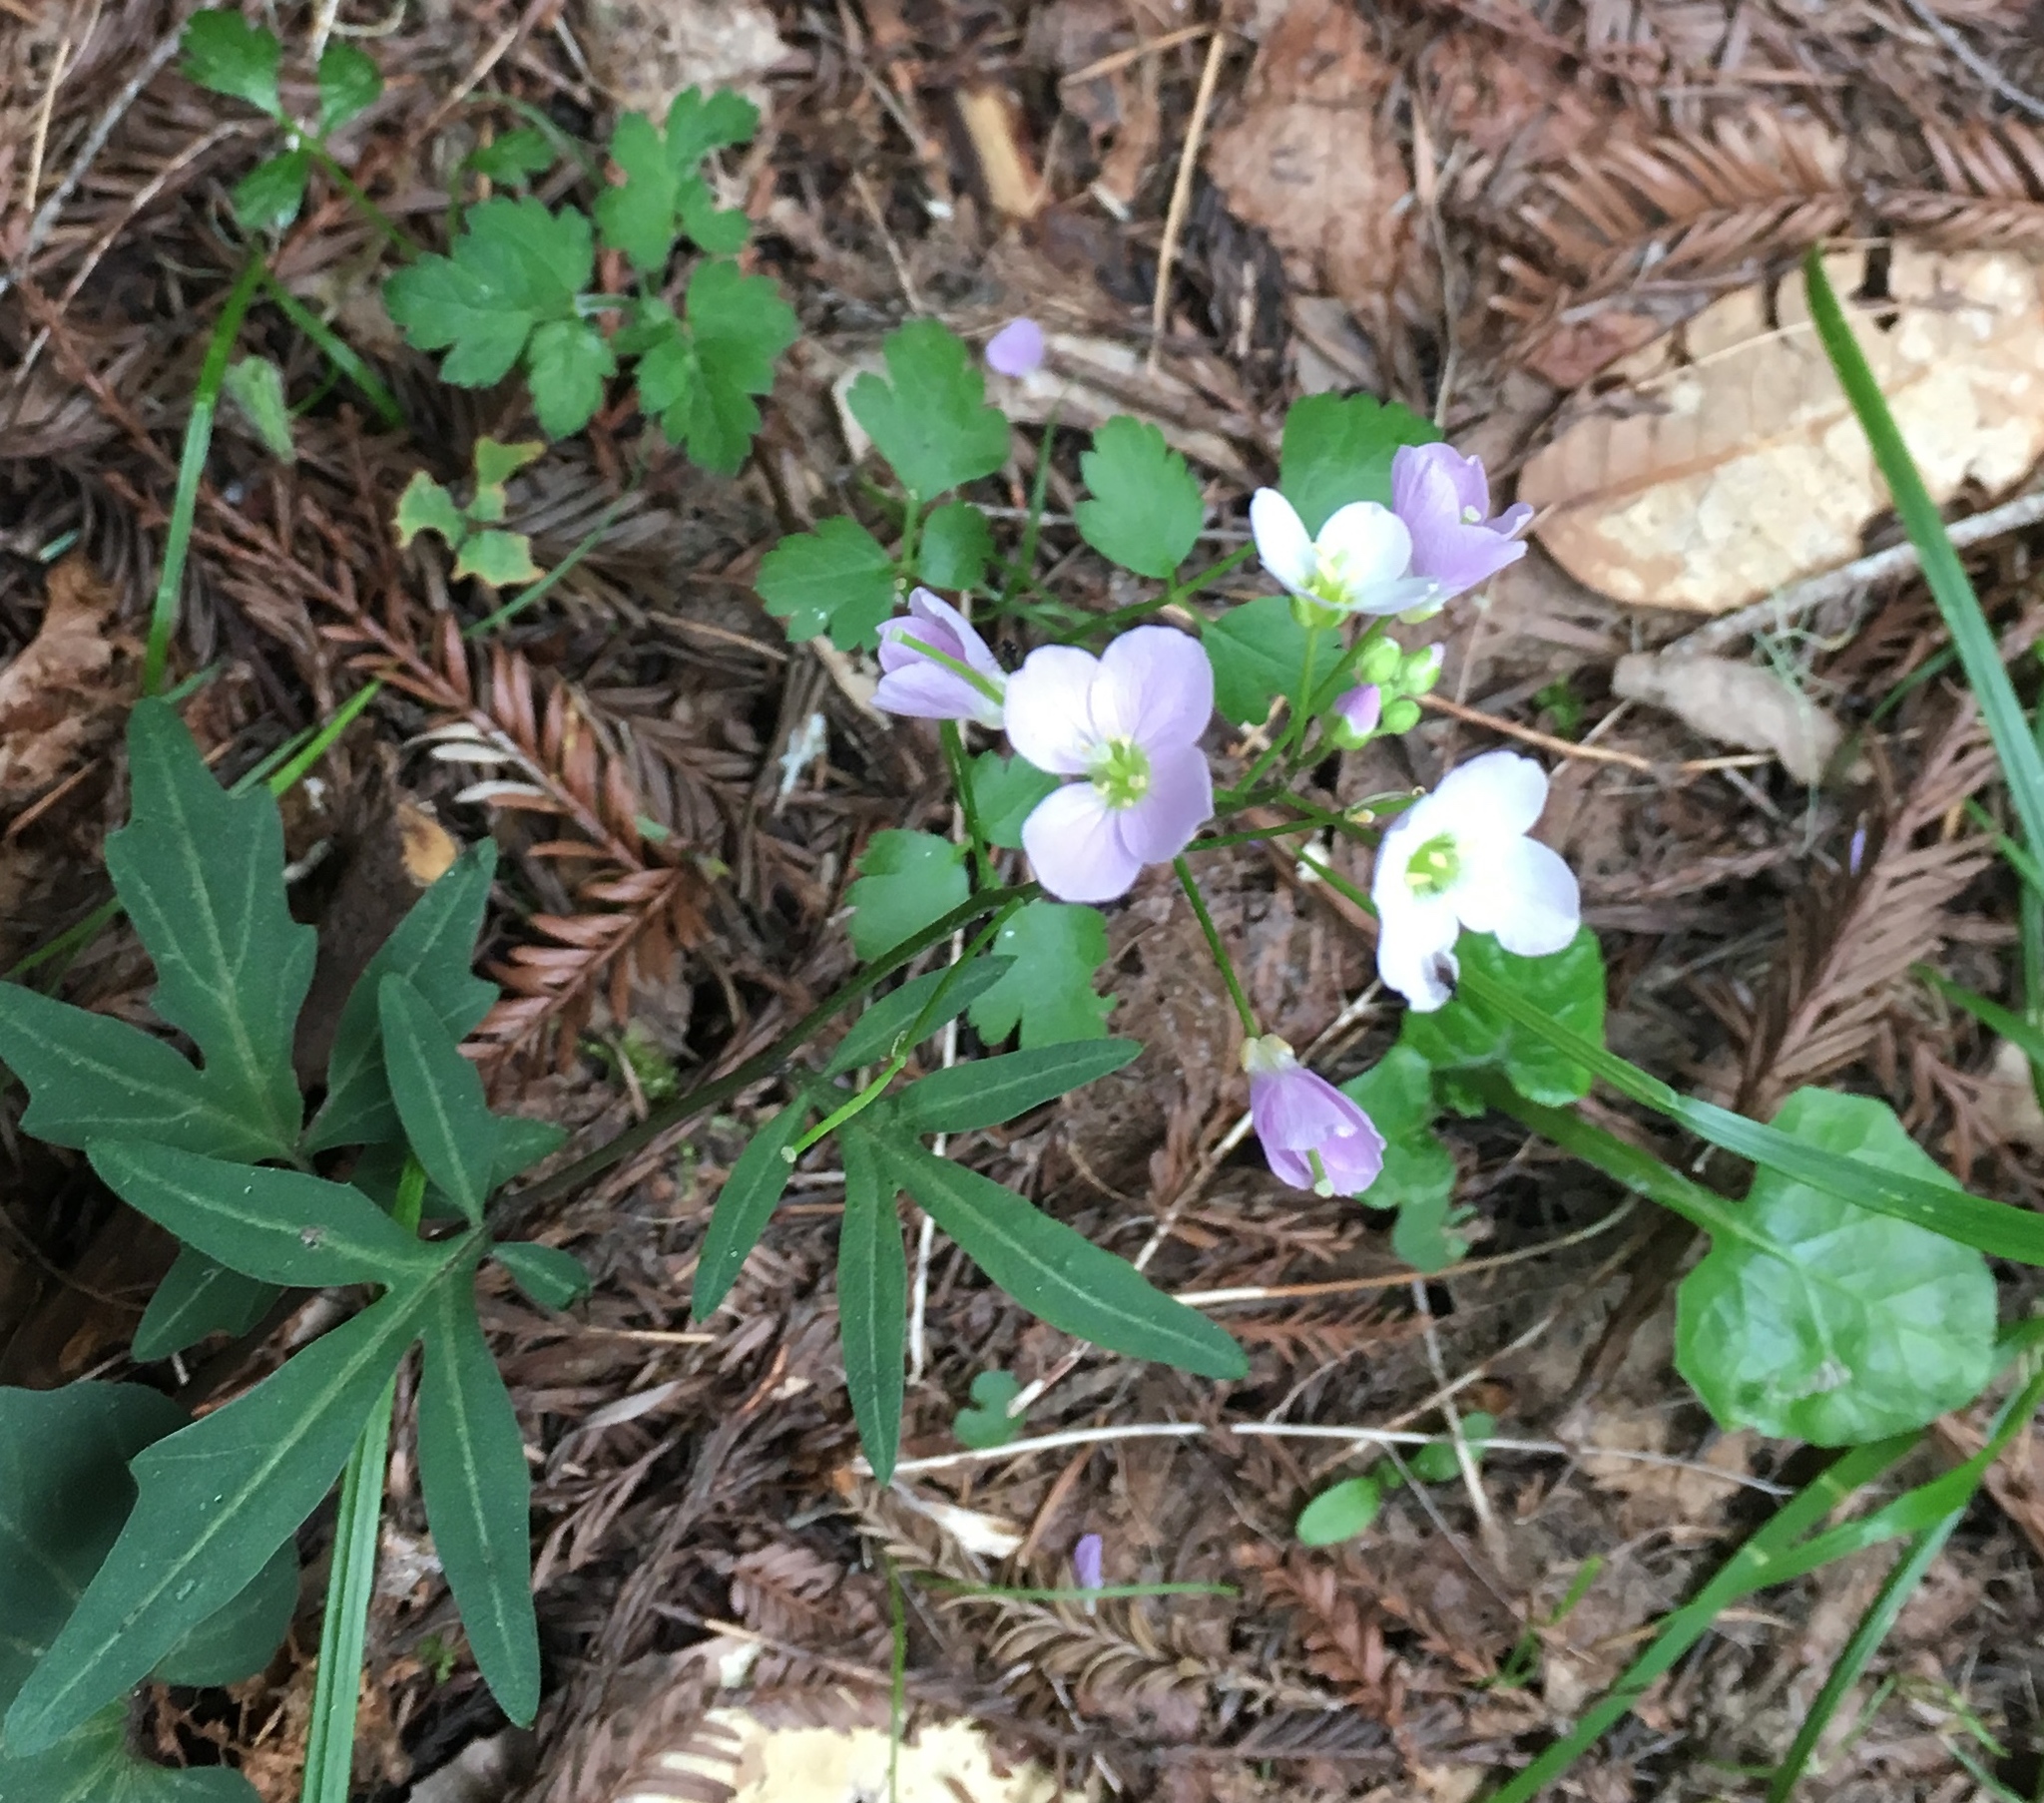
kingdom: Plantae
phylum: Tracheophyta
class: Magnoliopsida
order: Brassicales
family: Brassicaceae
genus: Cardamine
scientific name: Cardamine californica
